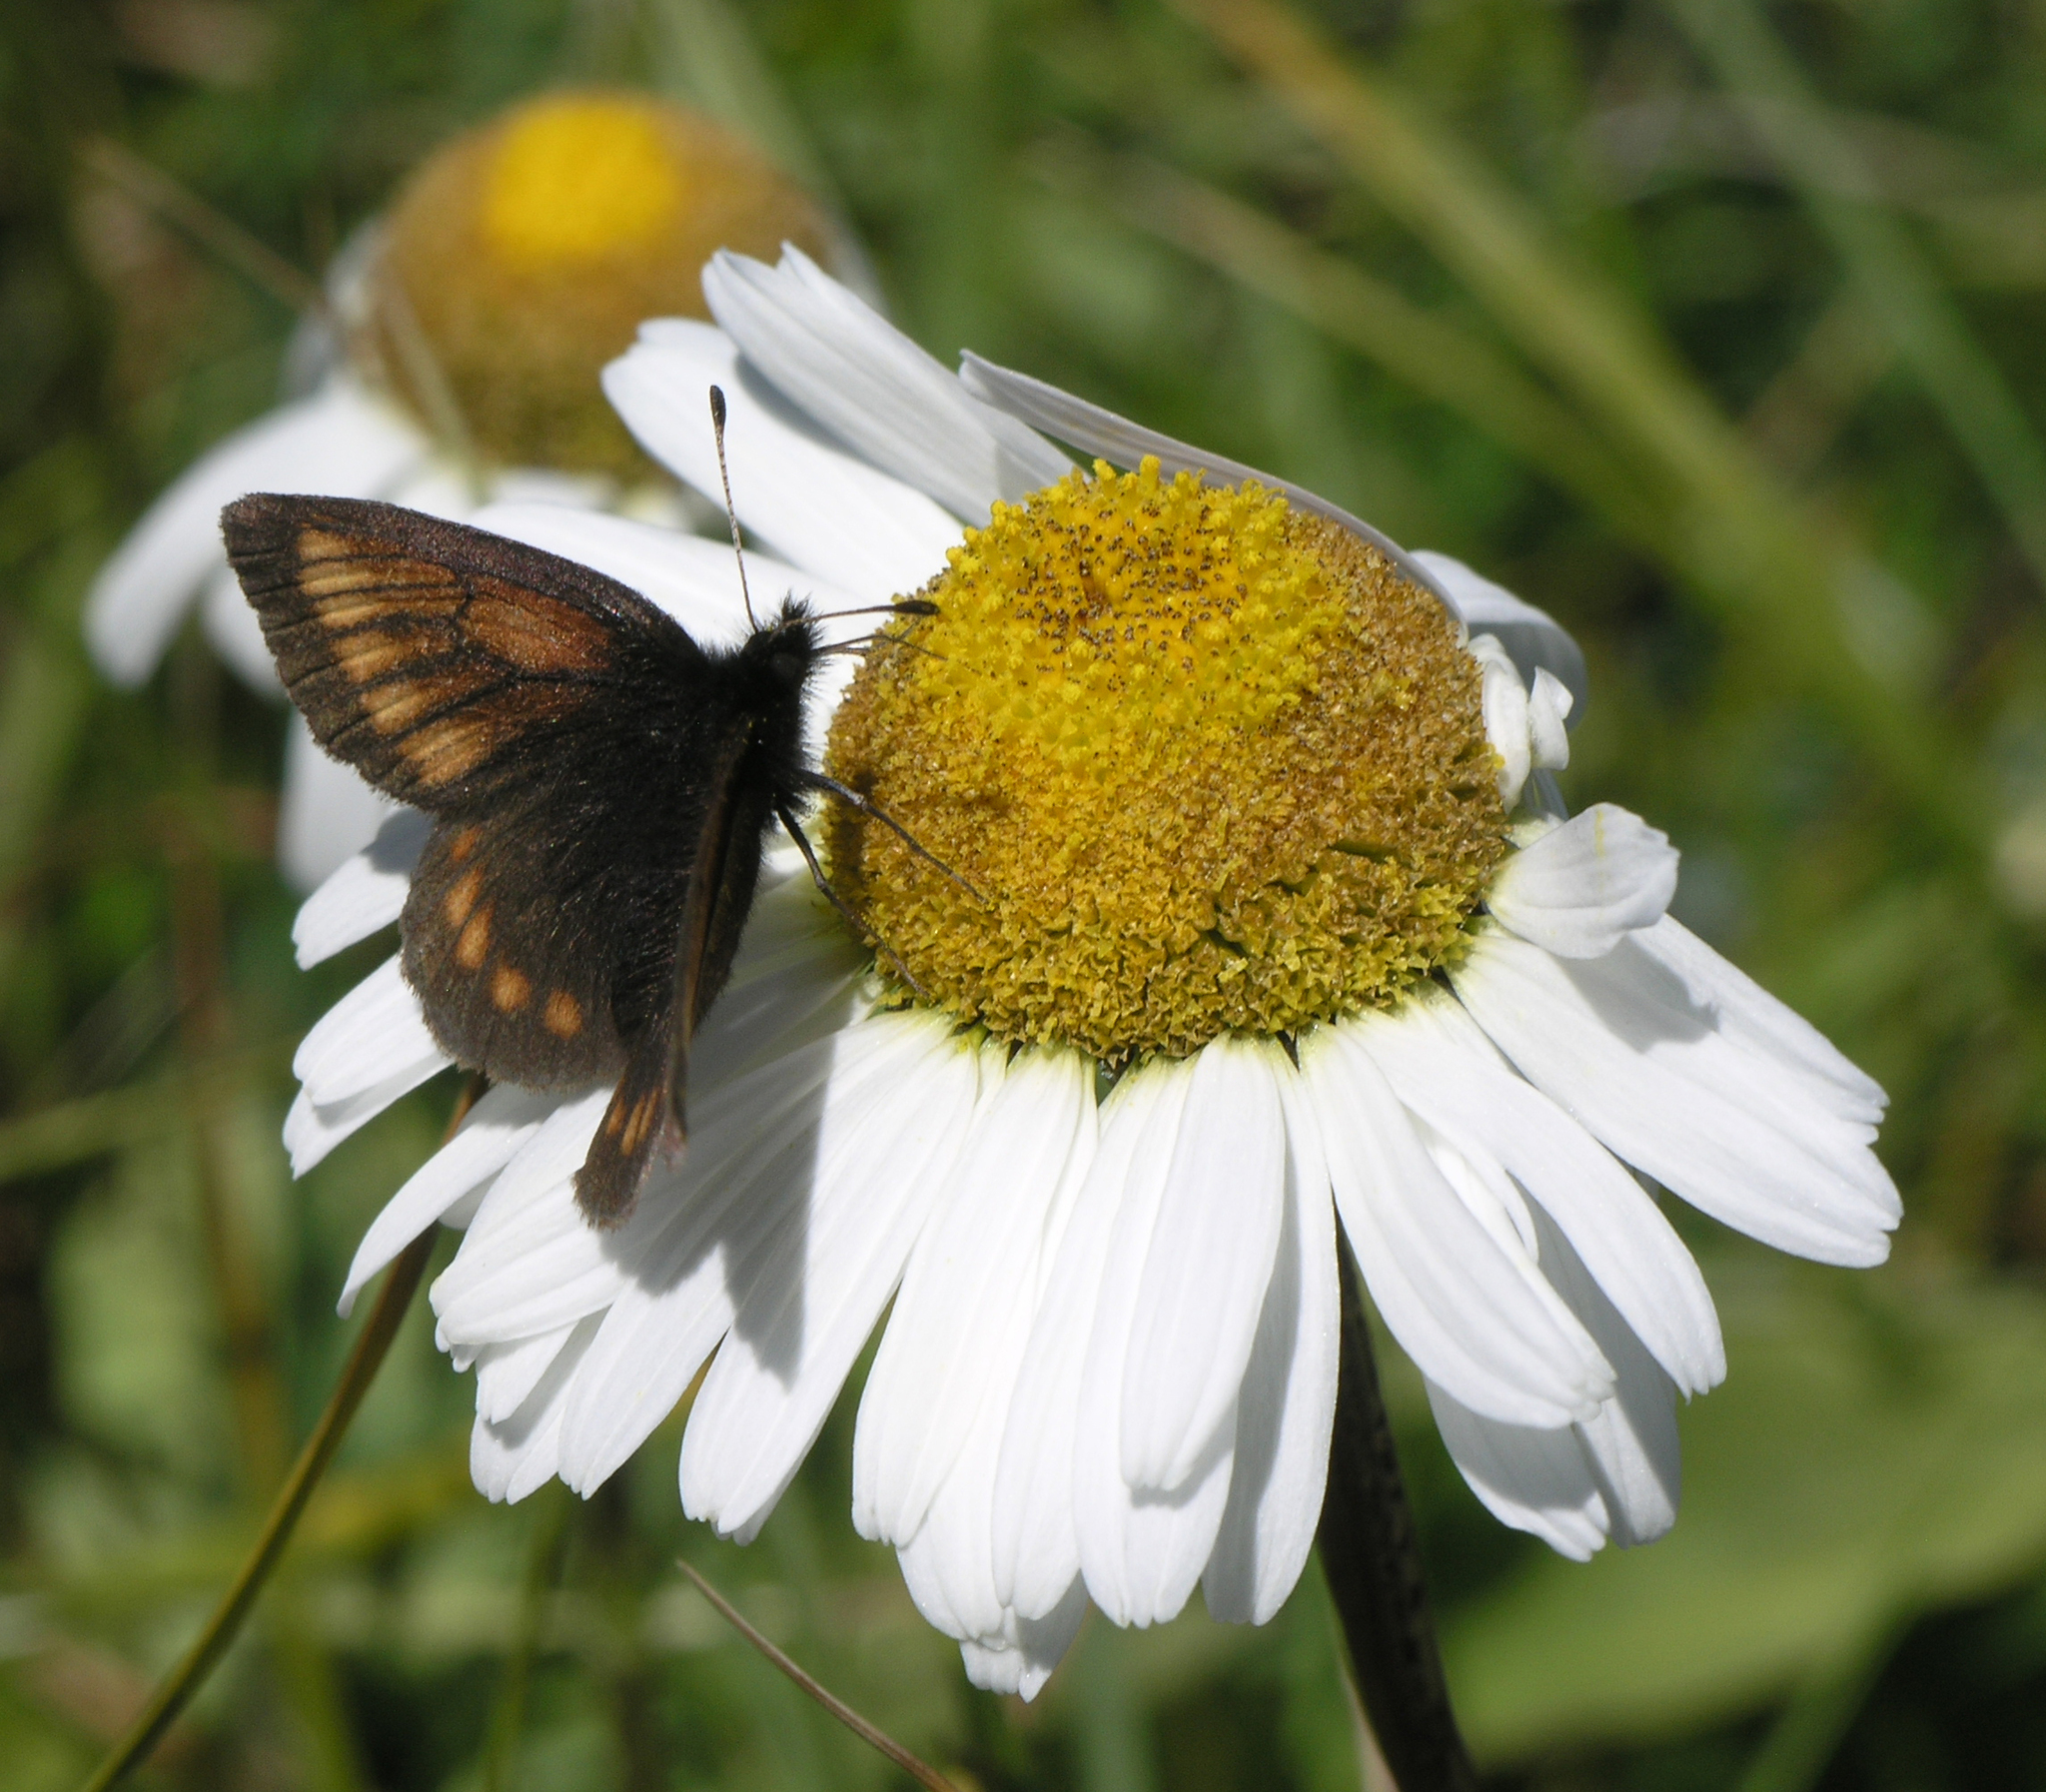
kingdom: Animalia
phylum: Arthropoda
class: Insecta
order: Lepidoptera
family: Nymphalidae
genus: Erebia
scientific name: Erebia kindermanni
